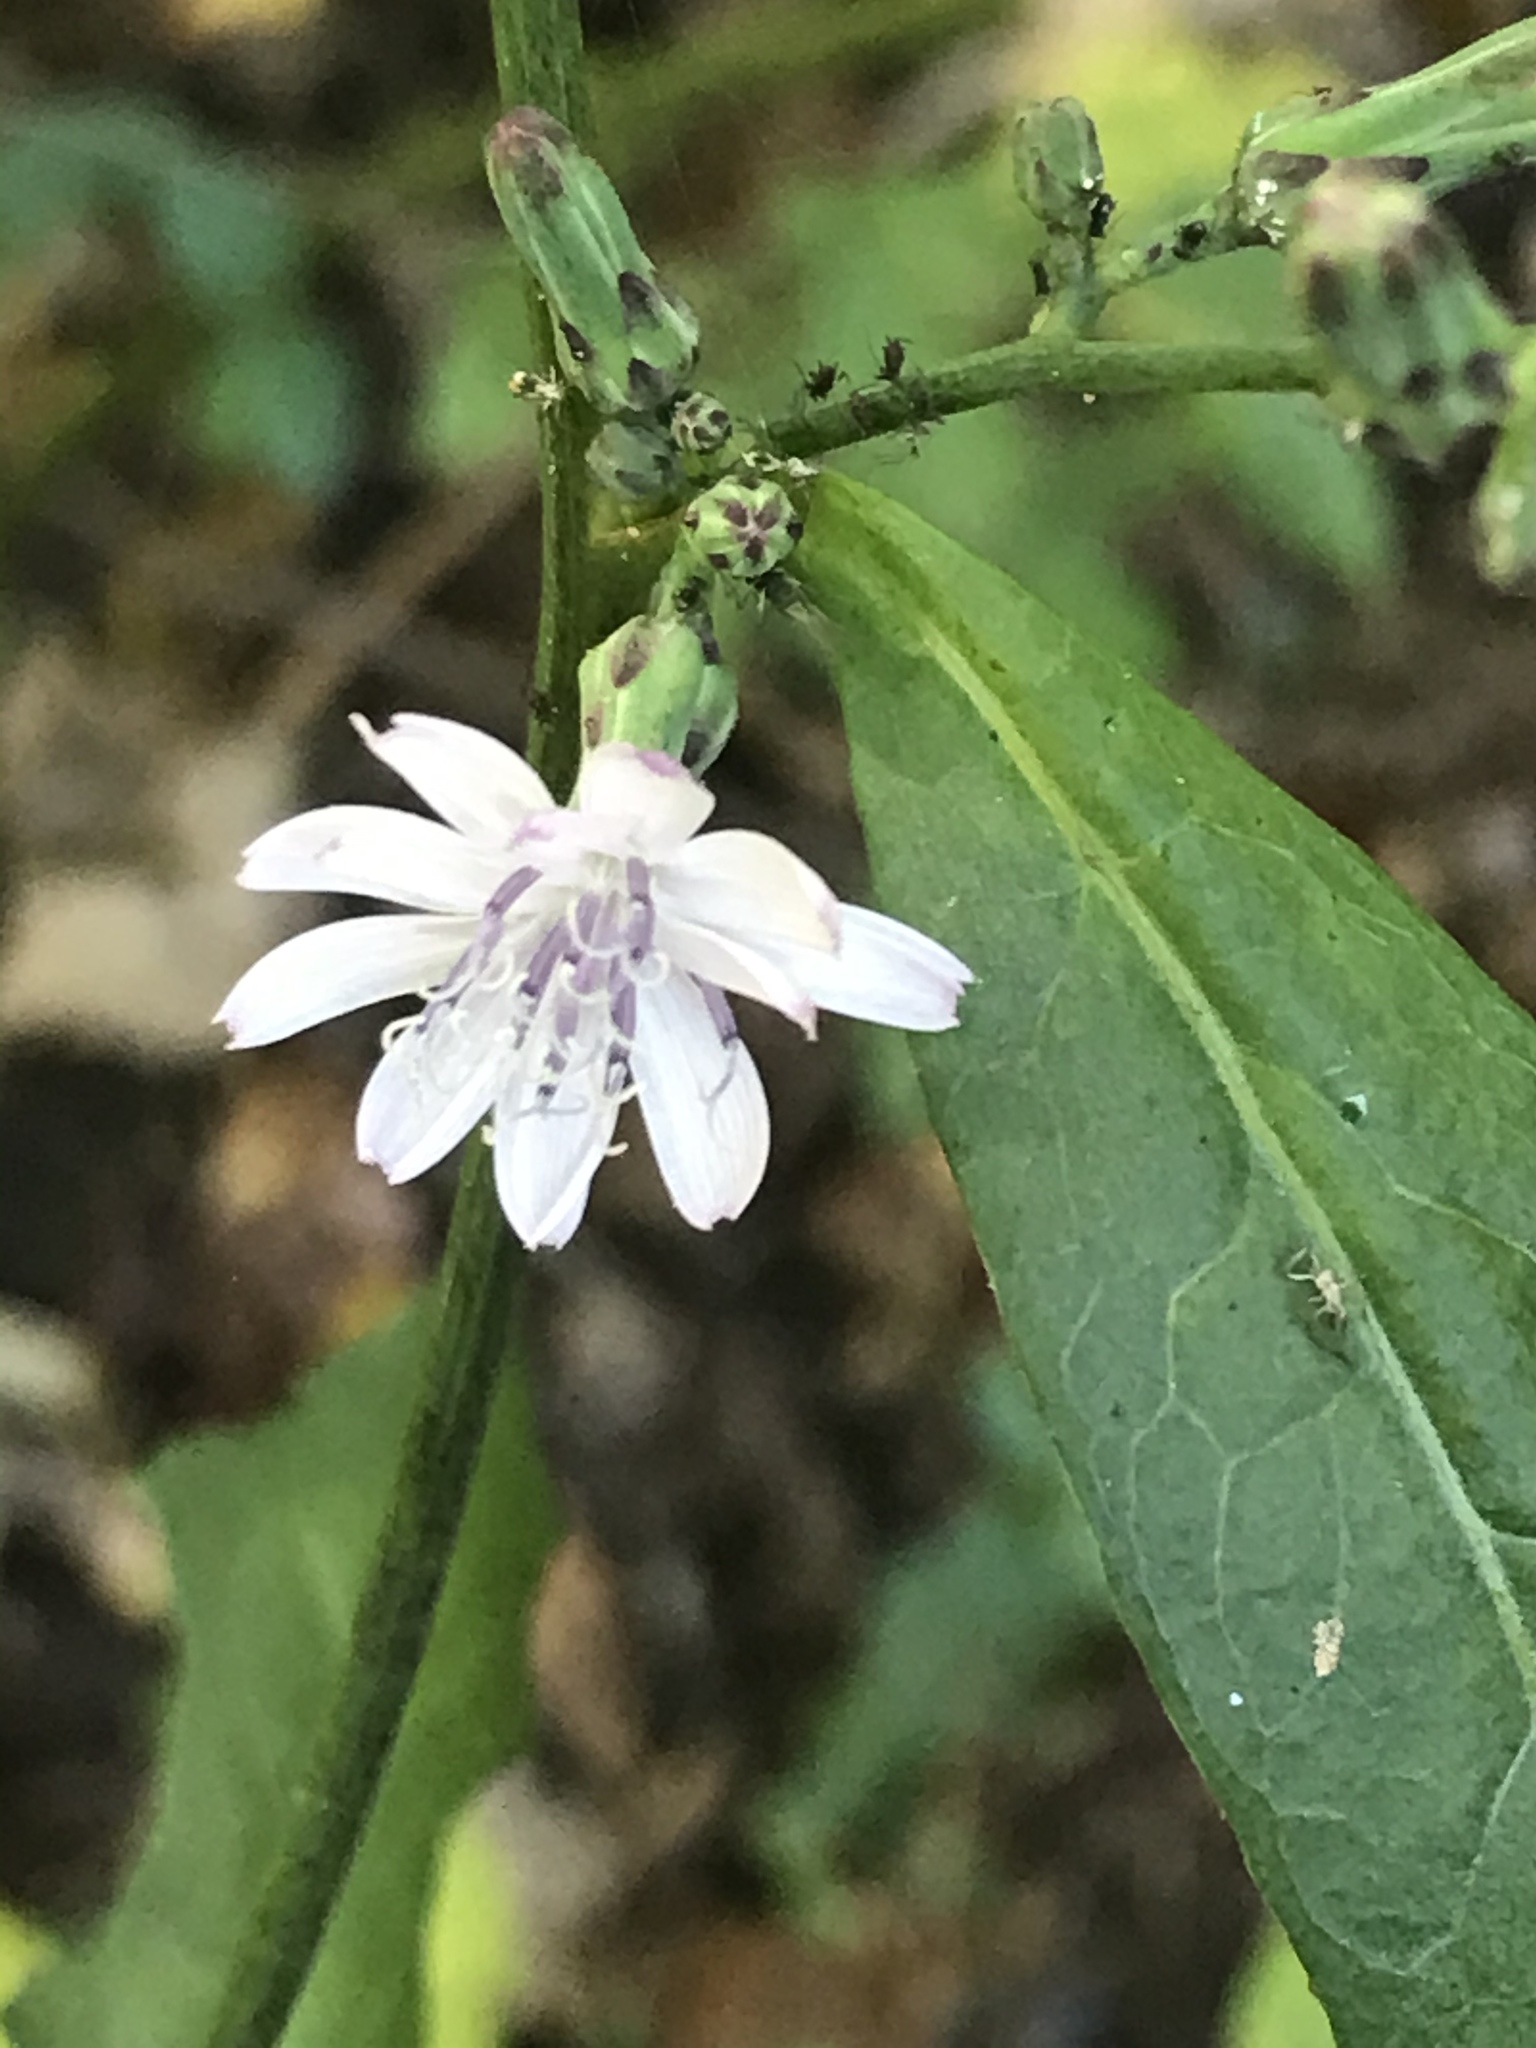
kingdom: Plantae
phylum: Tracheophyta
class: Magnoliopsida
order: Asterales
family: Asteraceae
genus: Lactuca
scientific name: Lactuca floridana
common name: Woodland lettuce
